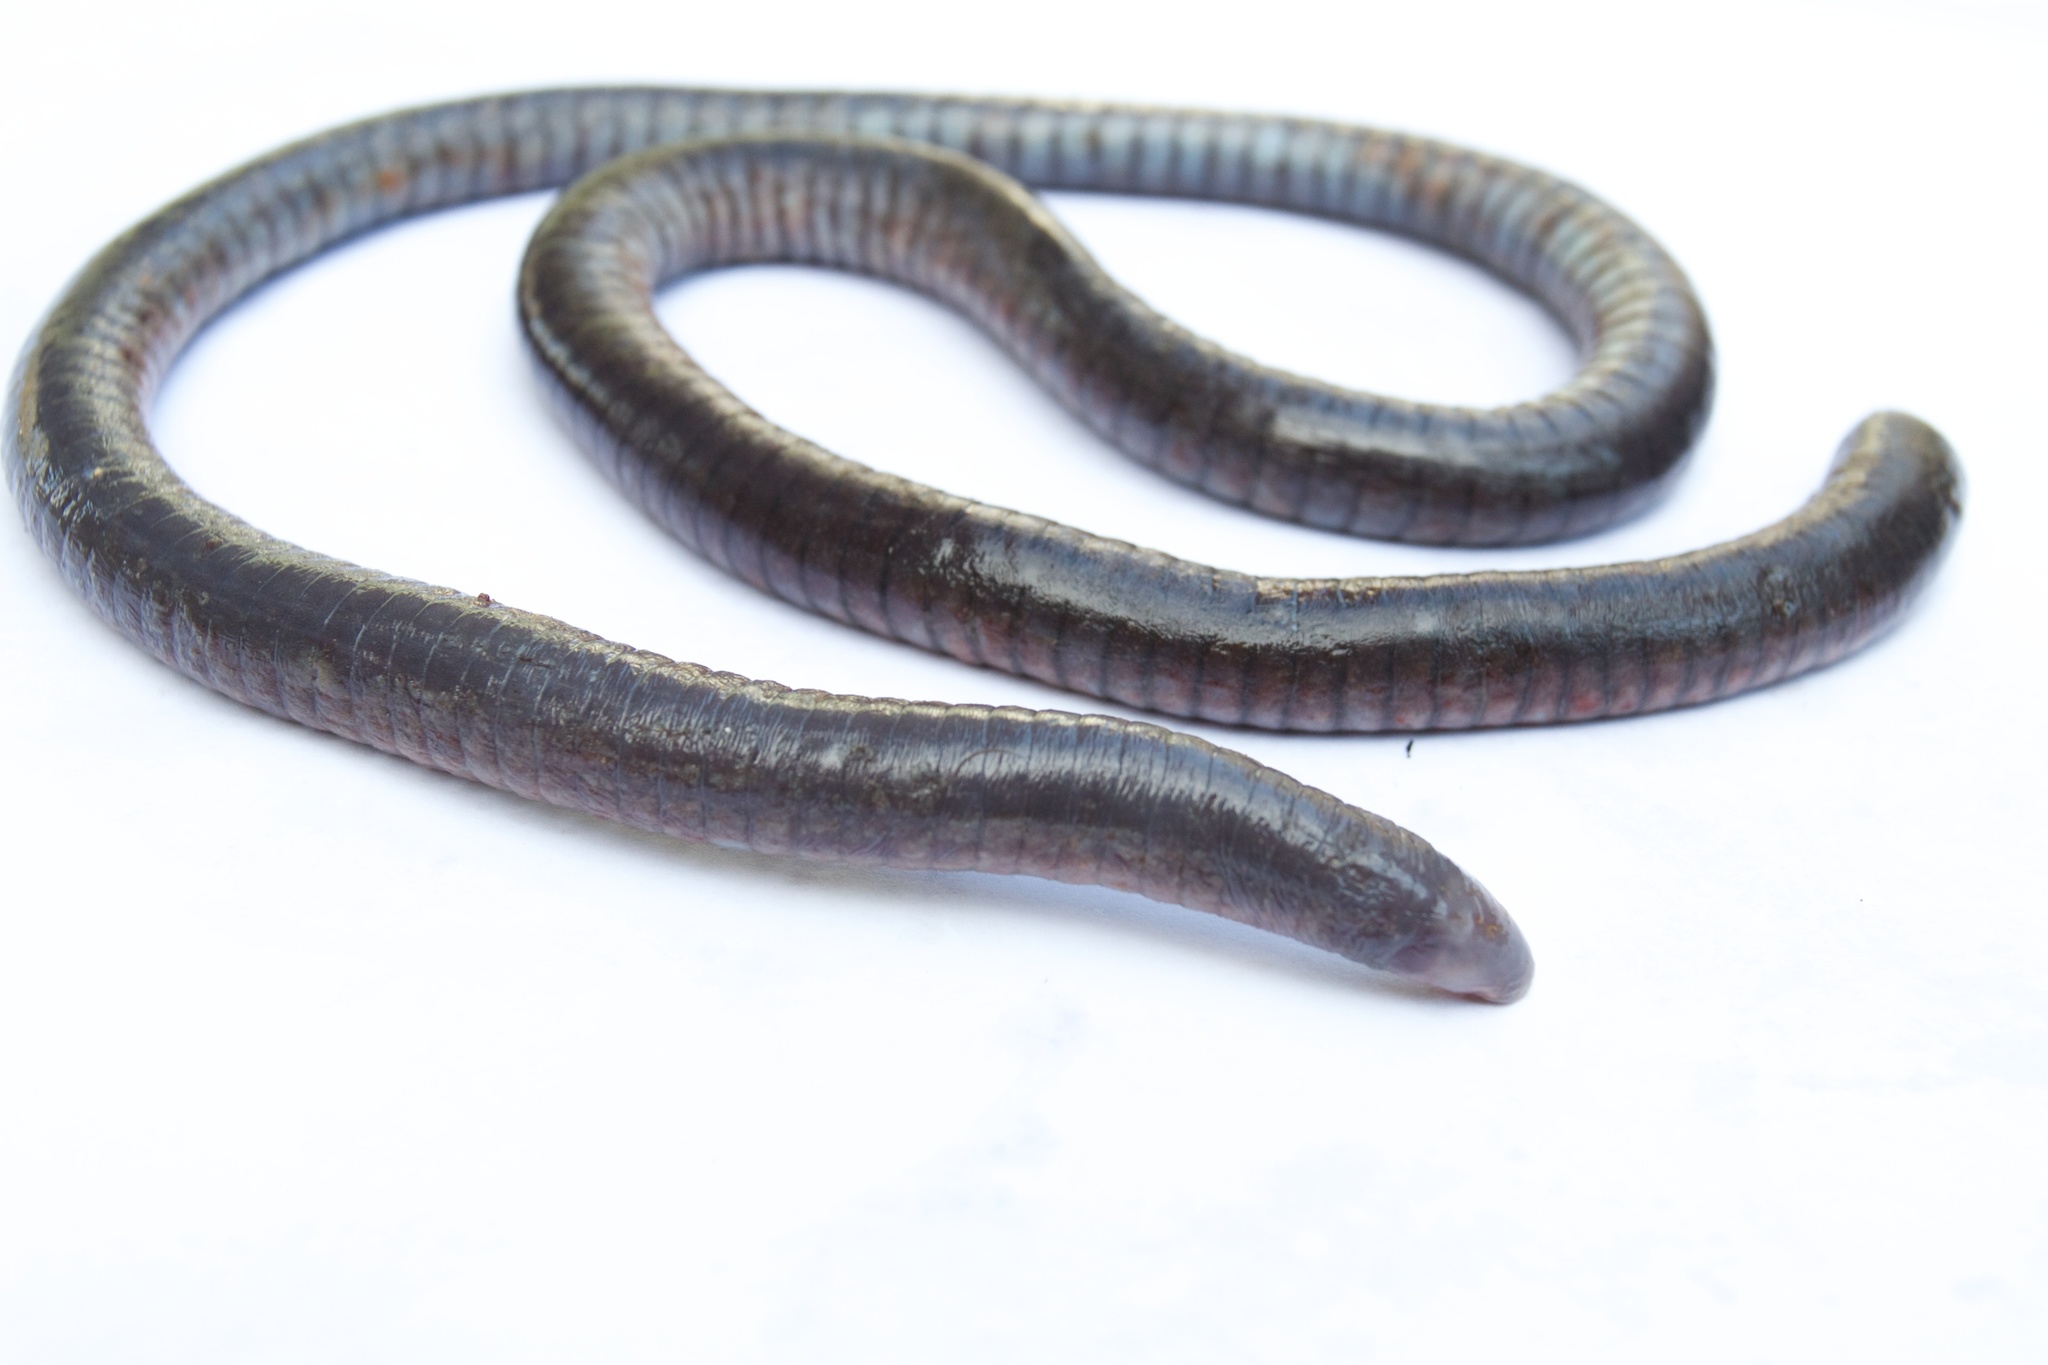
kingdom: Animalia
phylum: Chordata
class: Amphibia
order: Gymnophiona
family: Caeciliidae
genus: Oscaecilia
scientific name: Oscaecilia ochrocephala
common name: Yellow-headed caecilian
